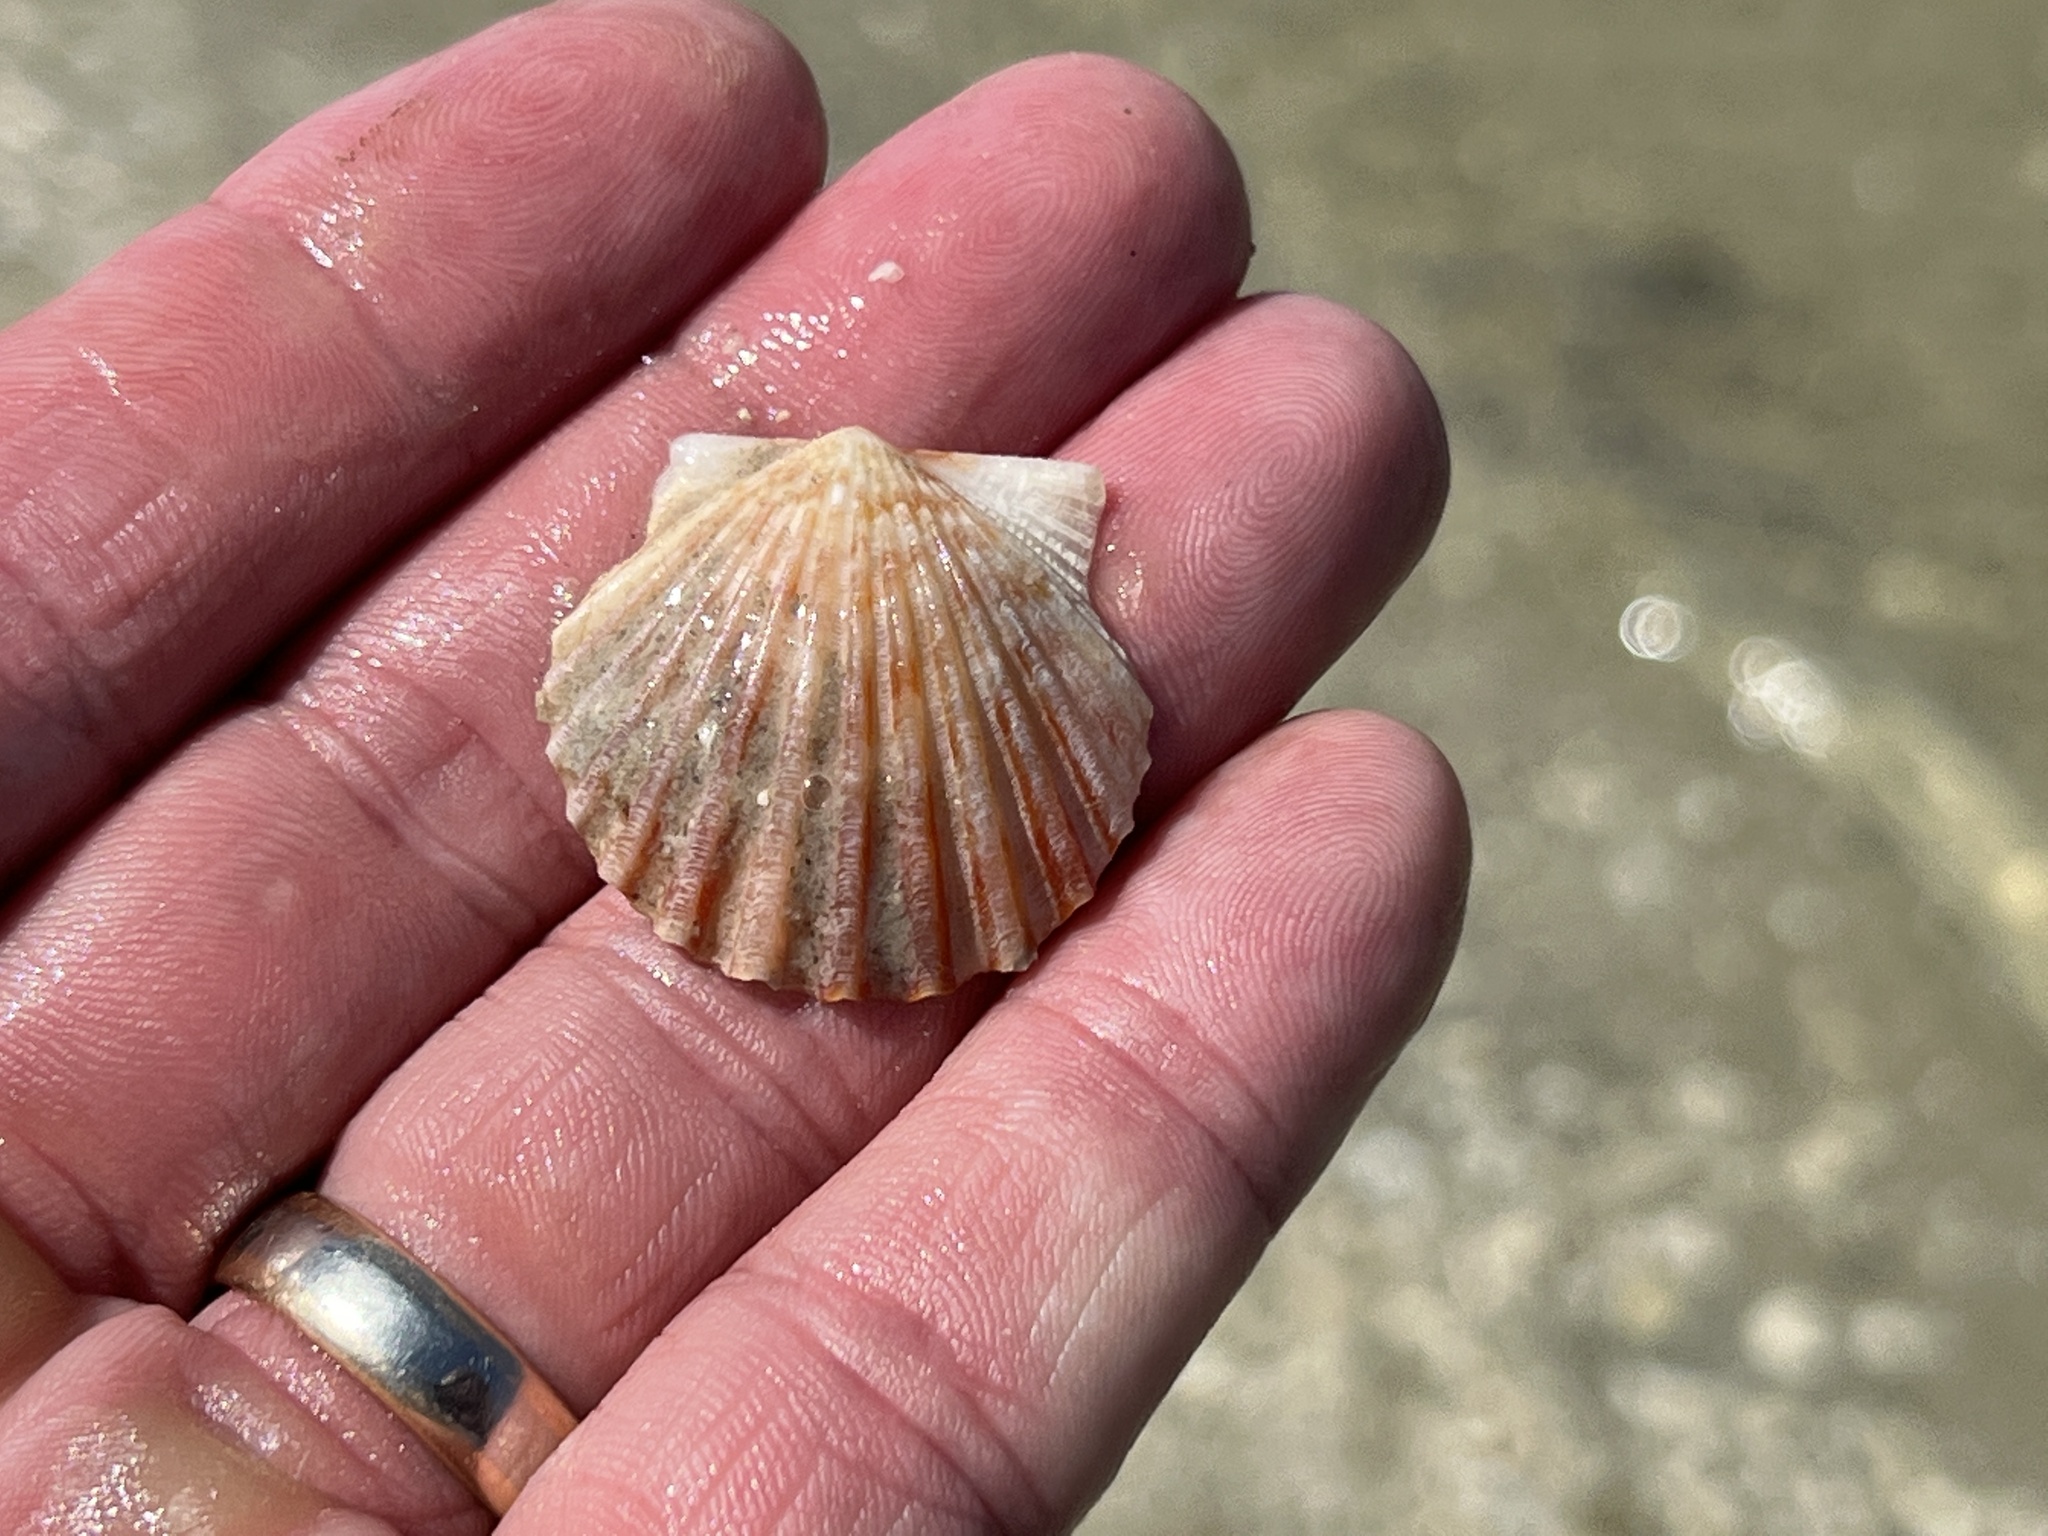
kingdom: Animalia
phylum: Mollusca
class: Bivalvia
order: Pectinida
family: Pectinidae
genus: Argopecten
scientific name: Argopecten irradians
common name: Atlantic bay scallop
